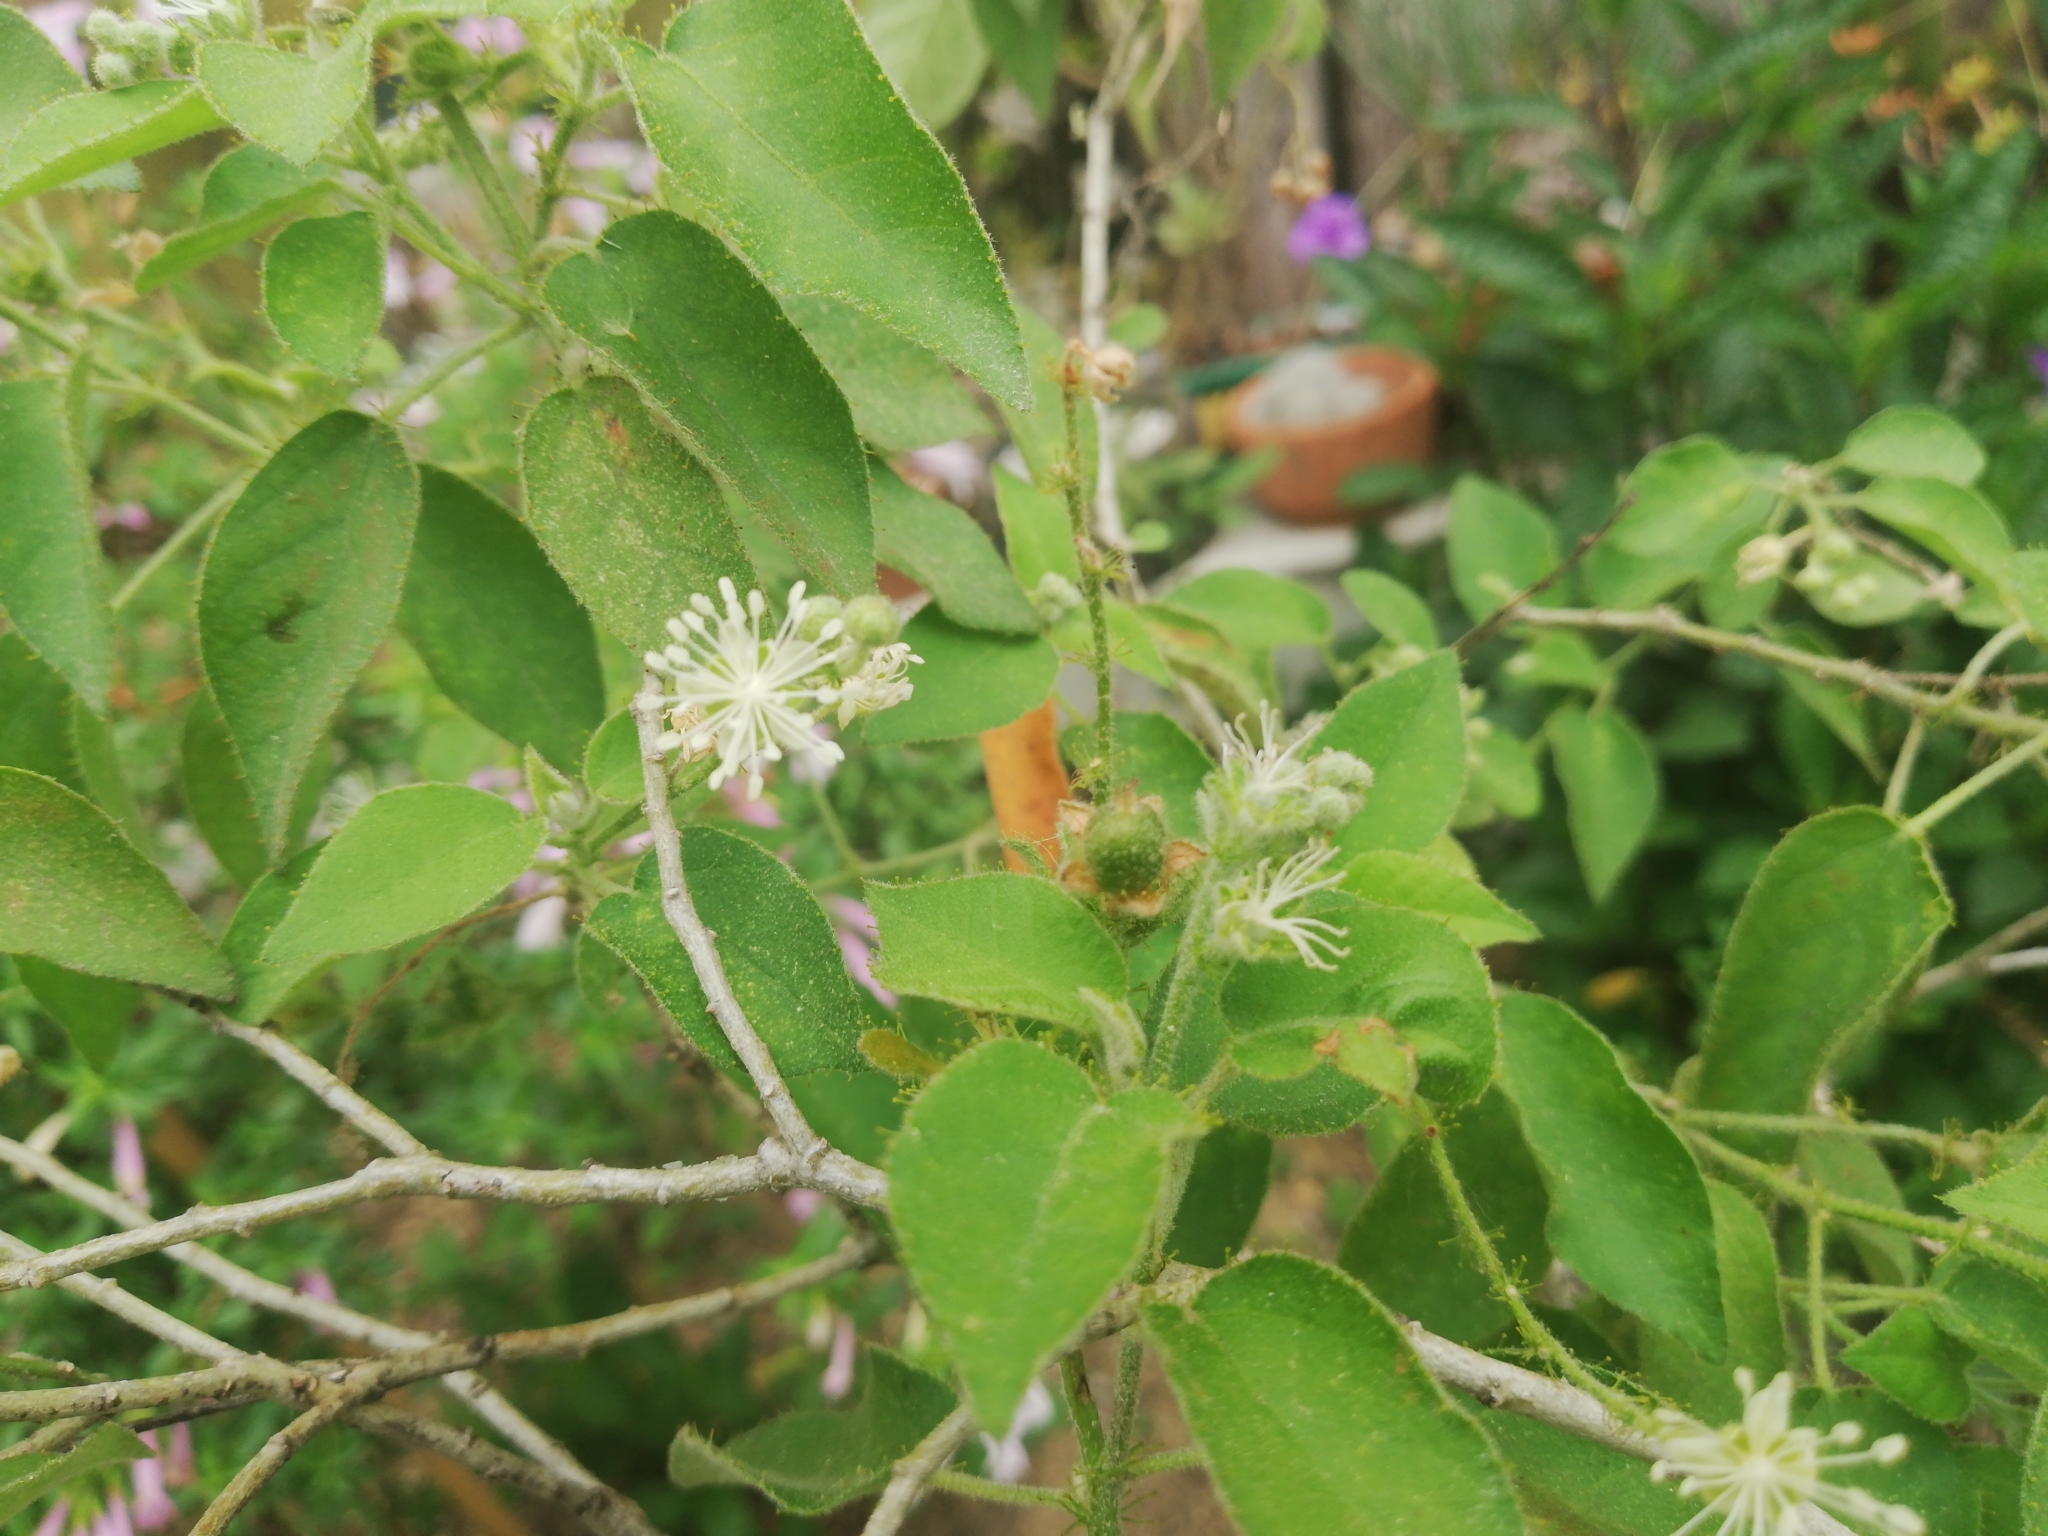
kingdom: Plantae
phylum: Tracheophyta
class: Magnoliopsida
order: Malpighiales
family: Euphorbiaceae
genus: Croton
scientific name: Croton ciliatoglandulifer
